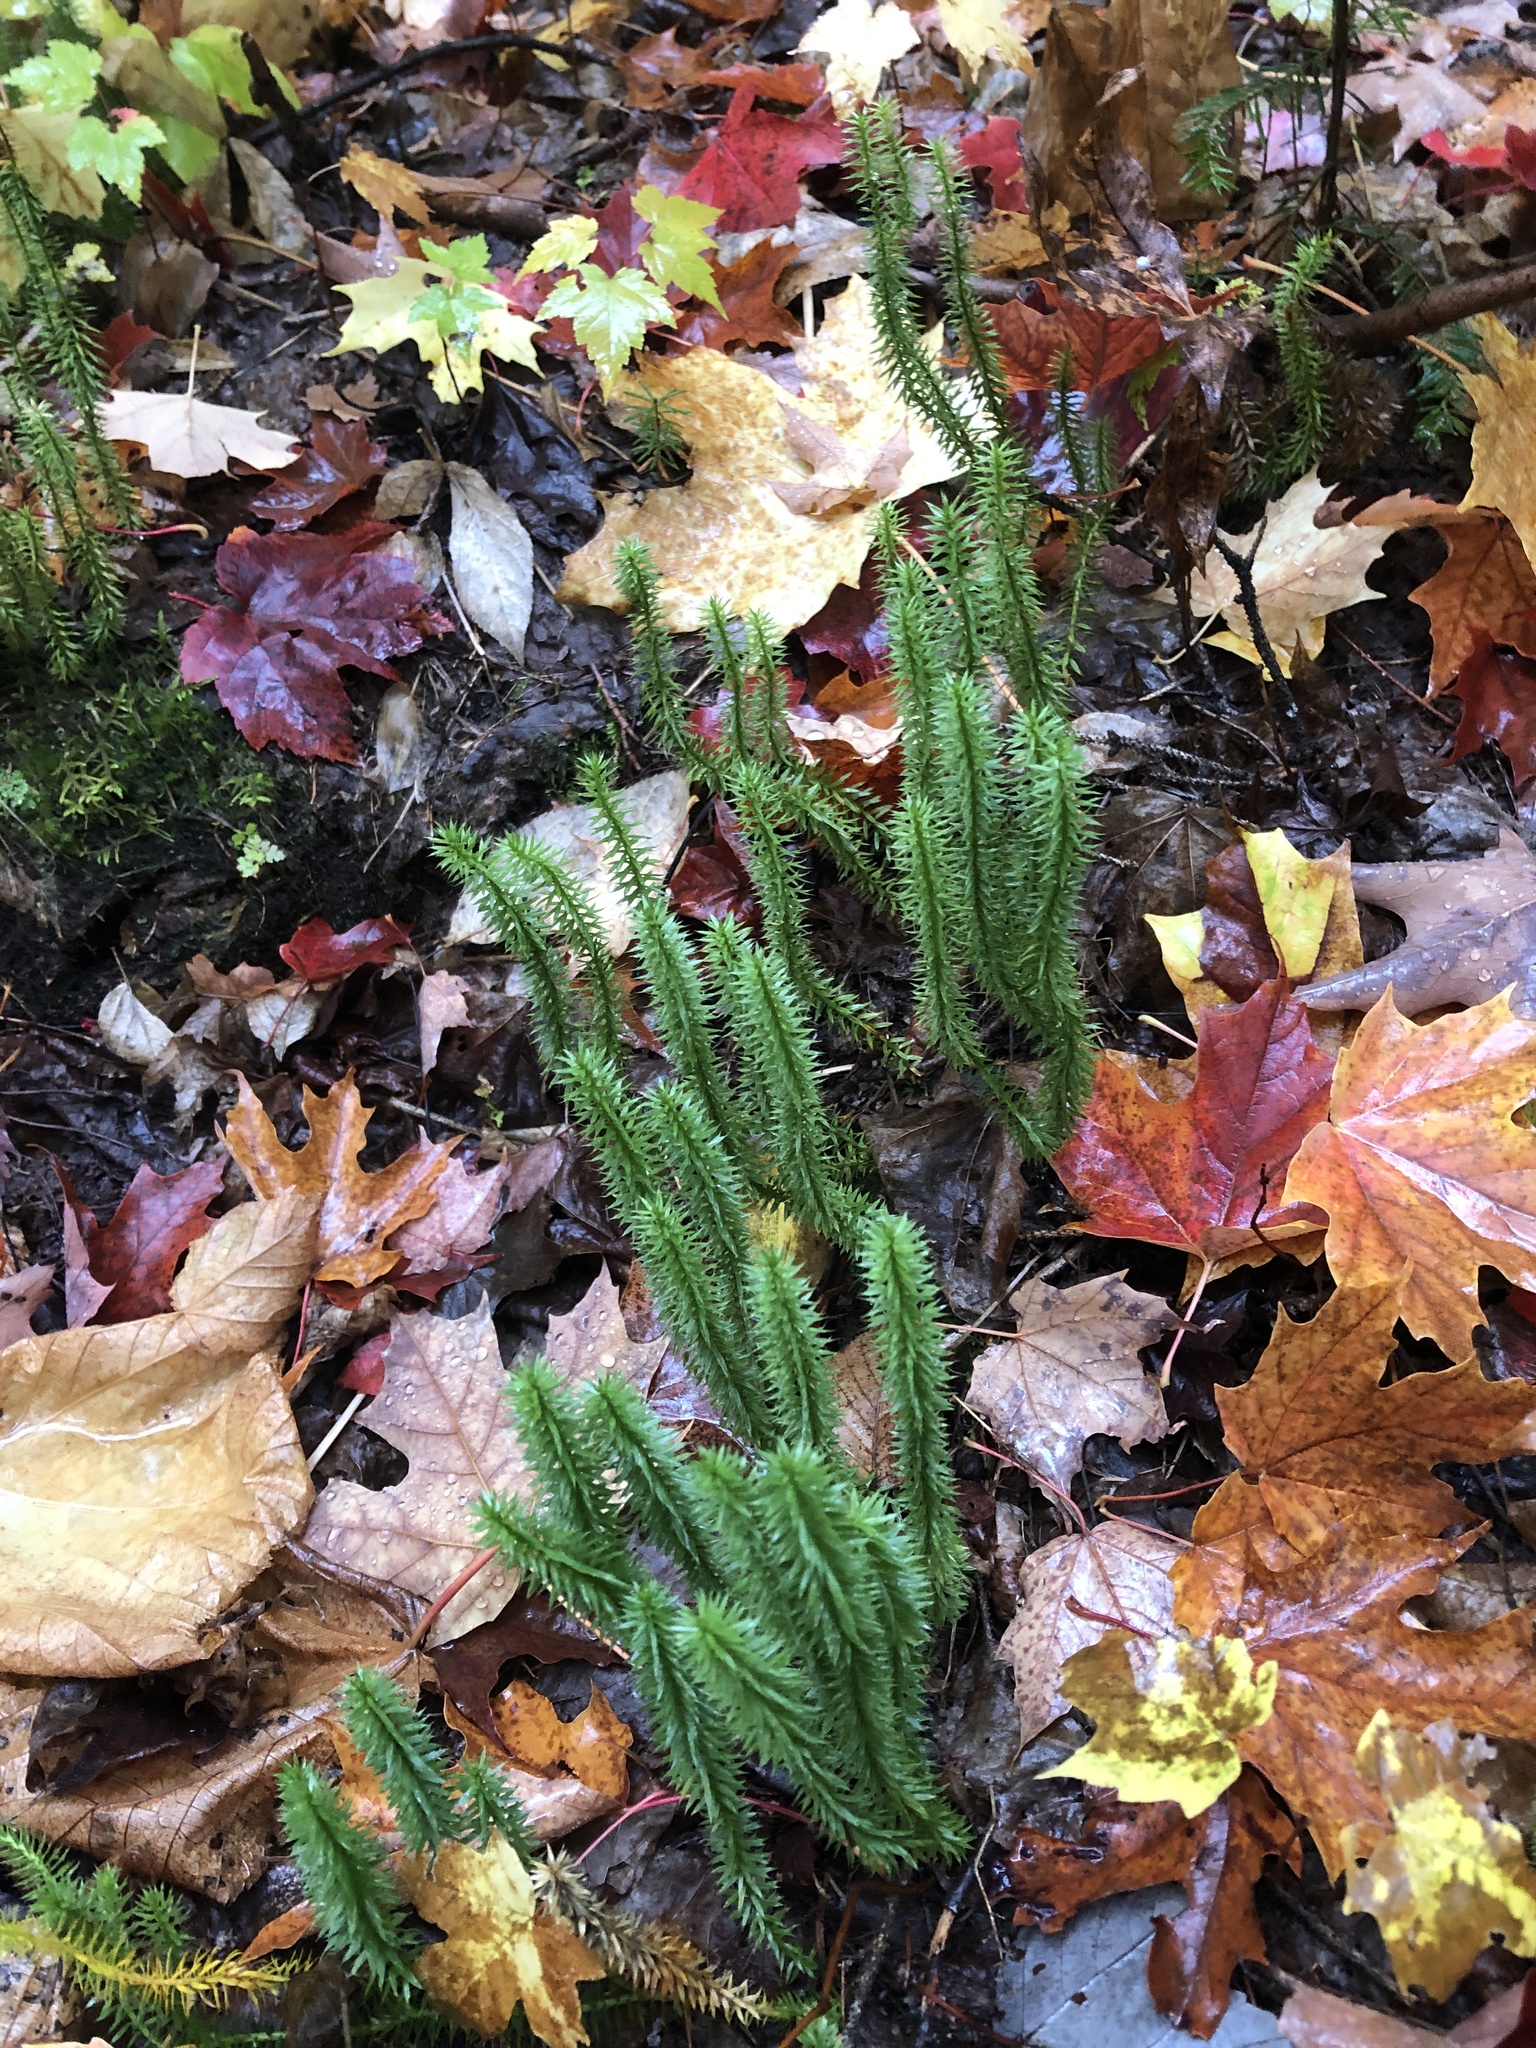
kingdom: Plantae
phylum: Tracheophyta
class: Lycopodiopsida
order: Lycopodiales
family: Lycopodiaceae
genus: Spinulum
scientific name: Spinulum annotinum
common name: Interrupted club-moss
